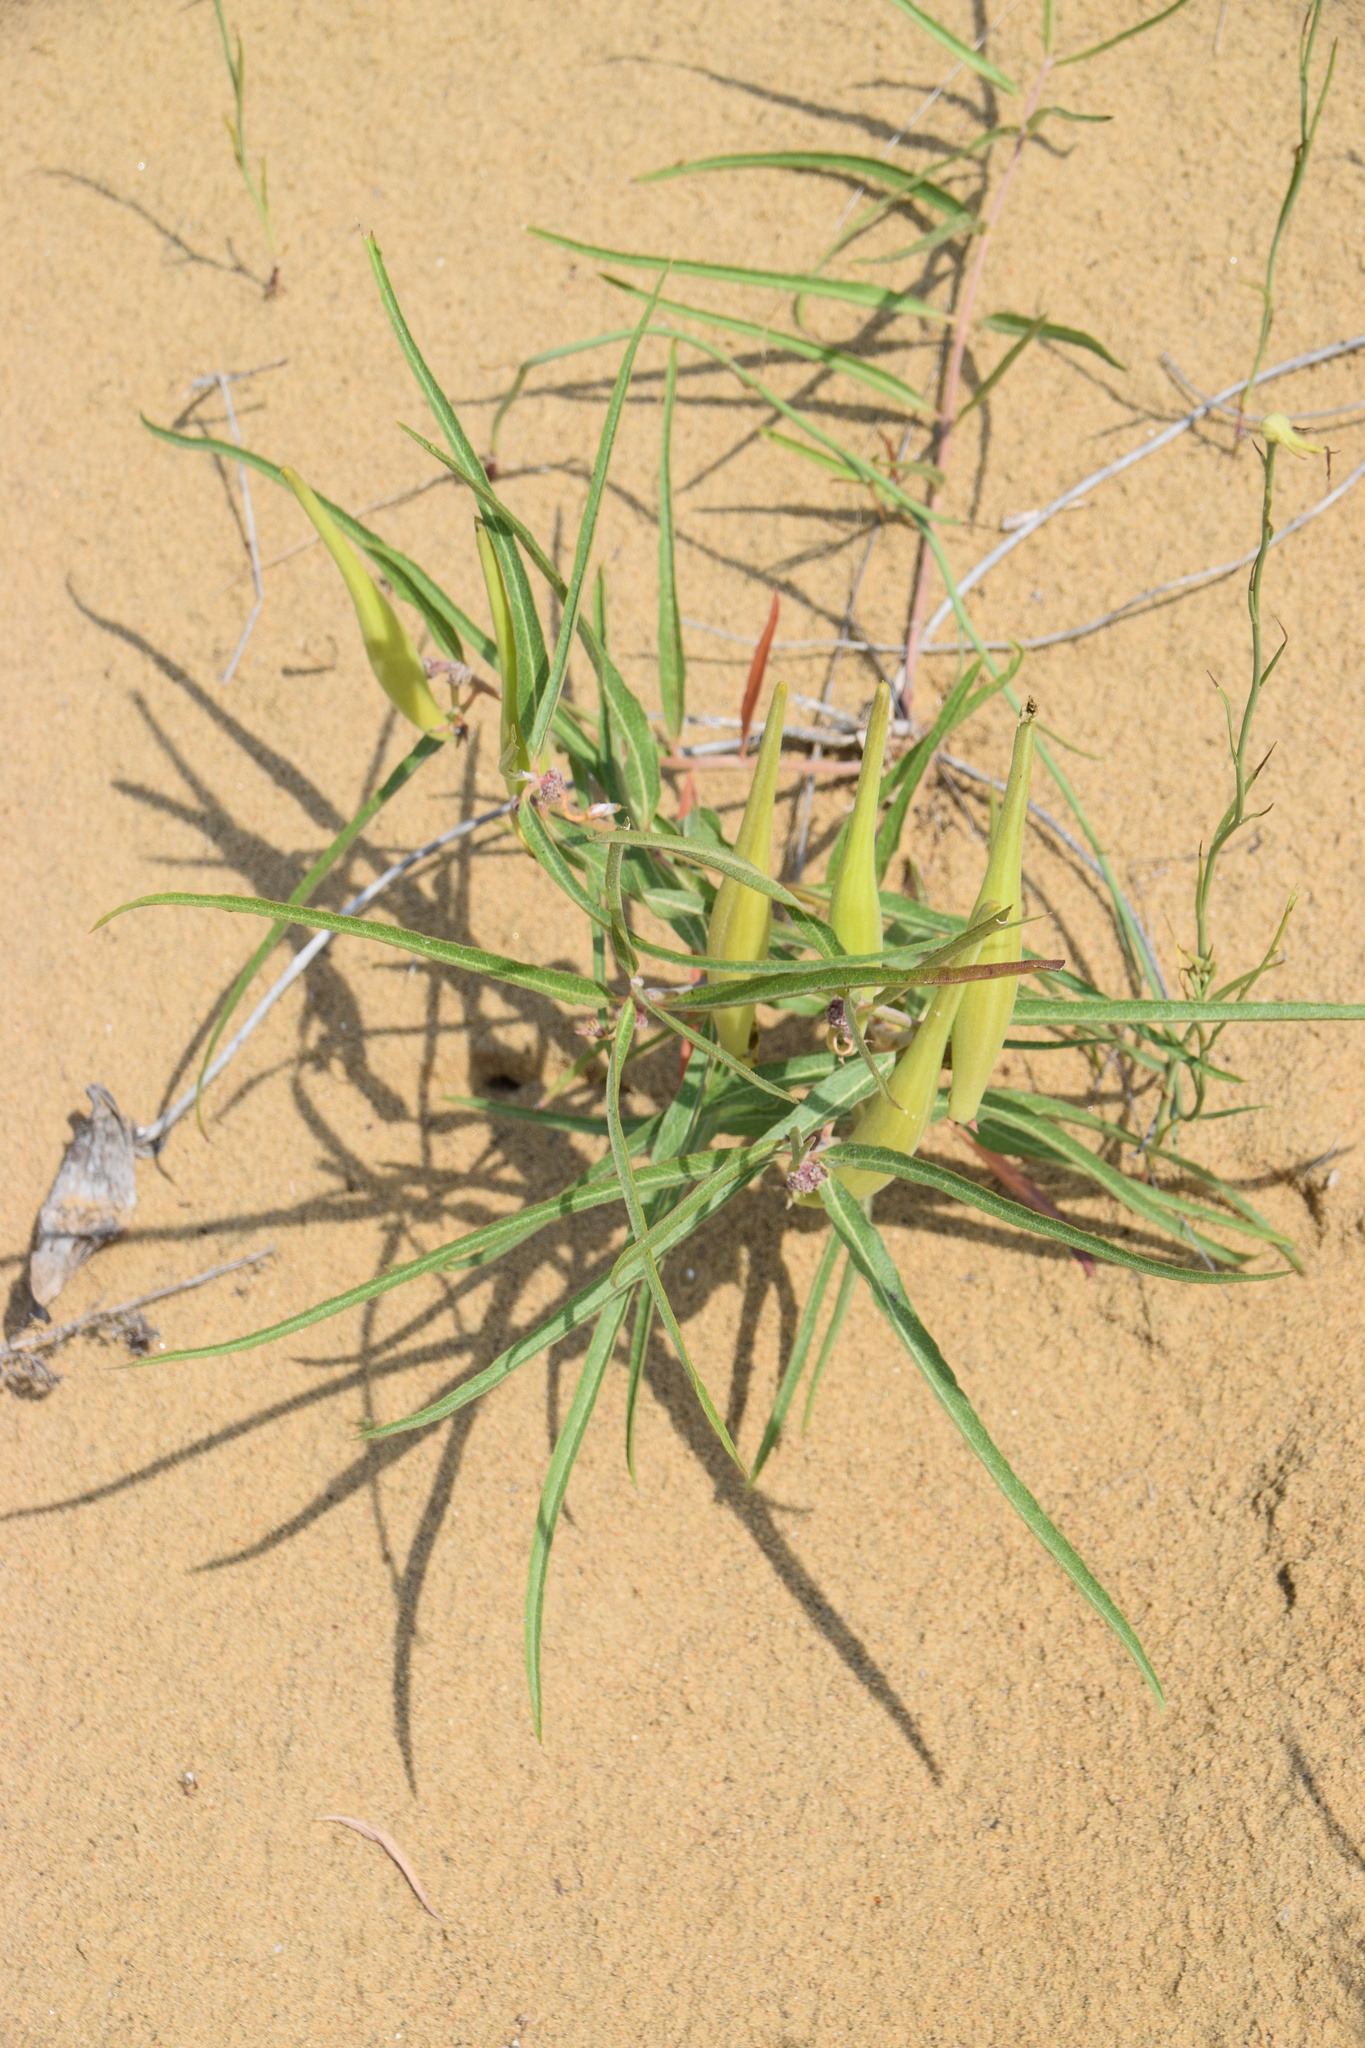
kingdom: Plantae
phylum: Tracheophyta
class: Magnoliopsida
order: Gentianales
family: Apocynaceae
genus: Asclepias
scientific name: Asclepias viridiflora
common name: Green comet milkweed
